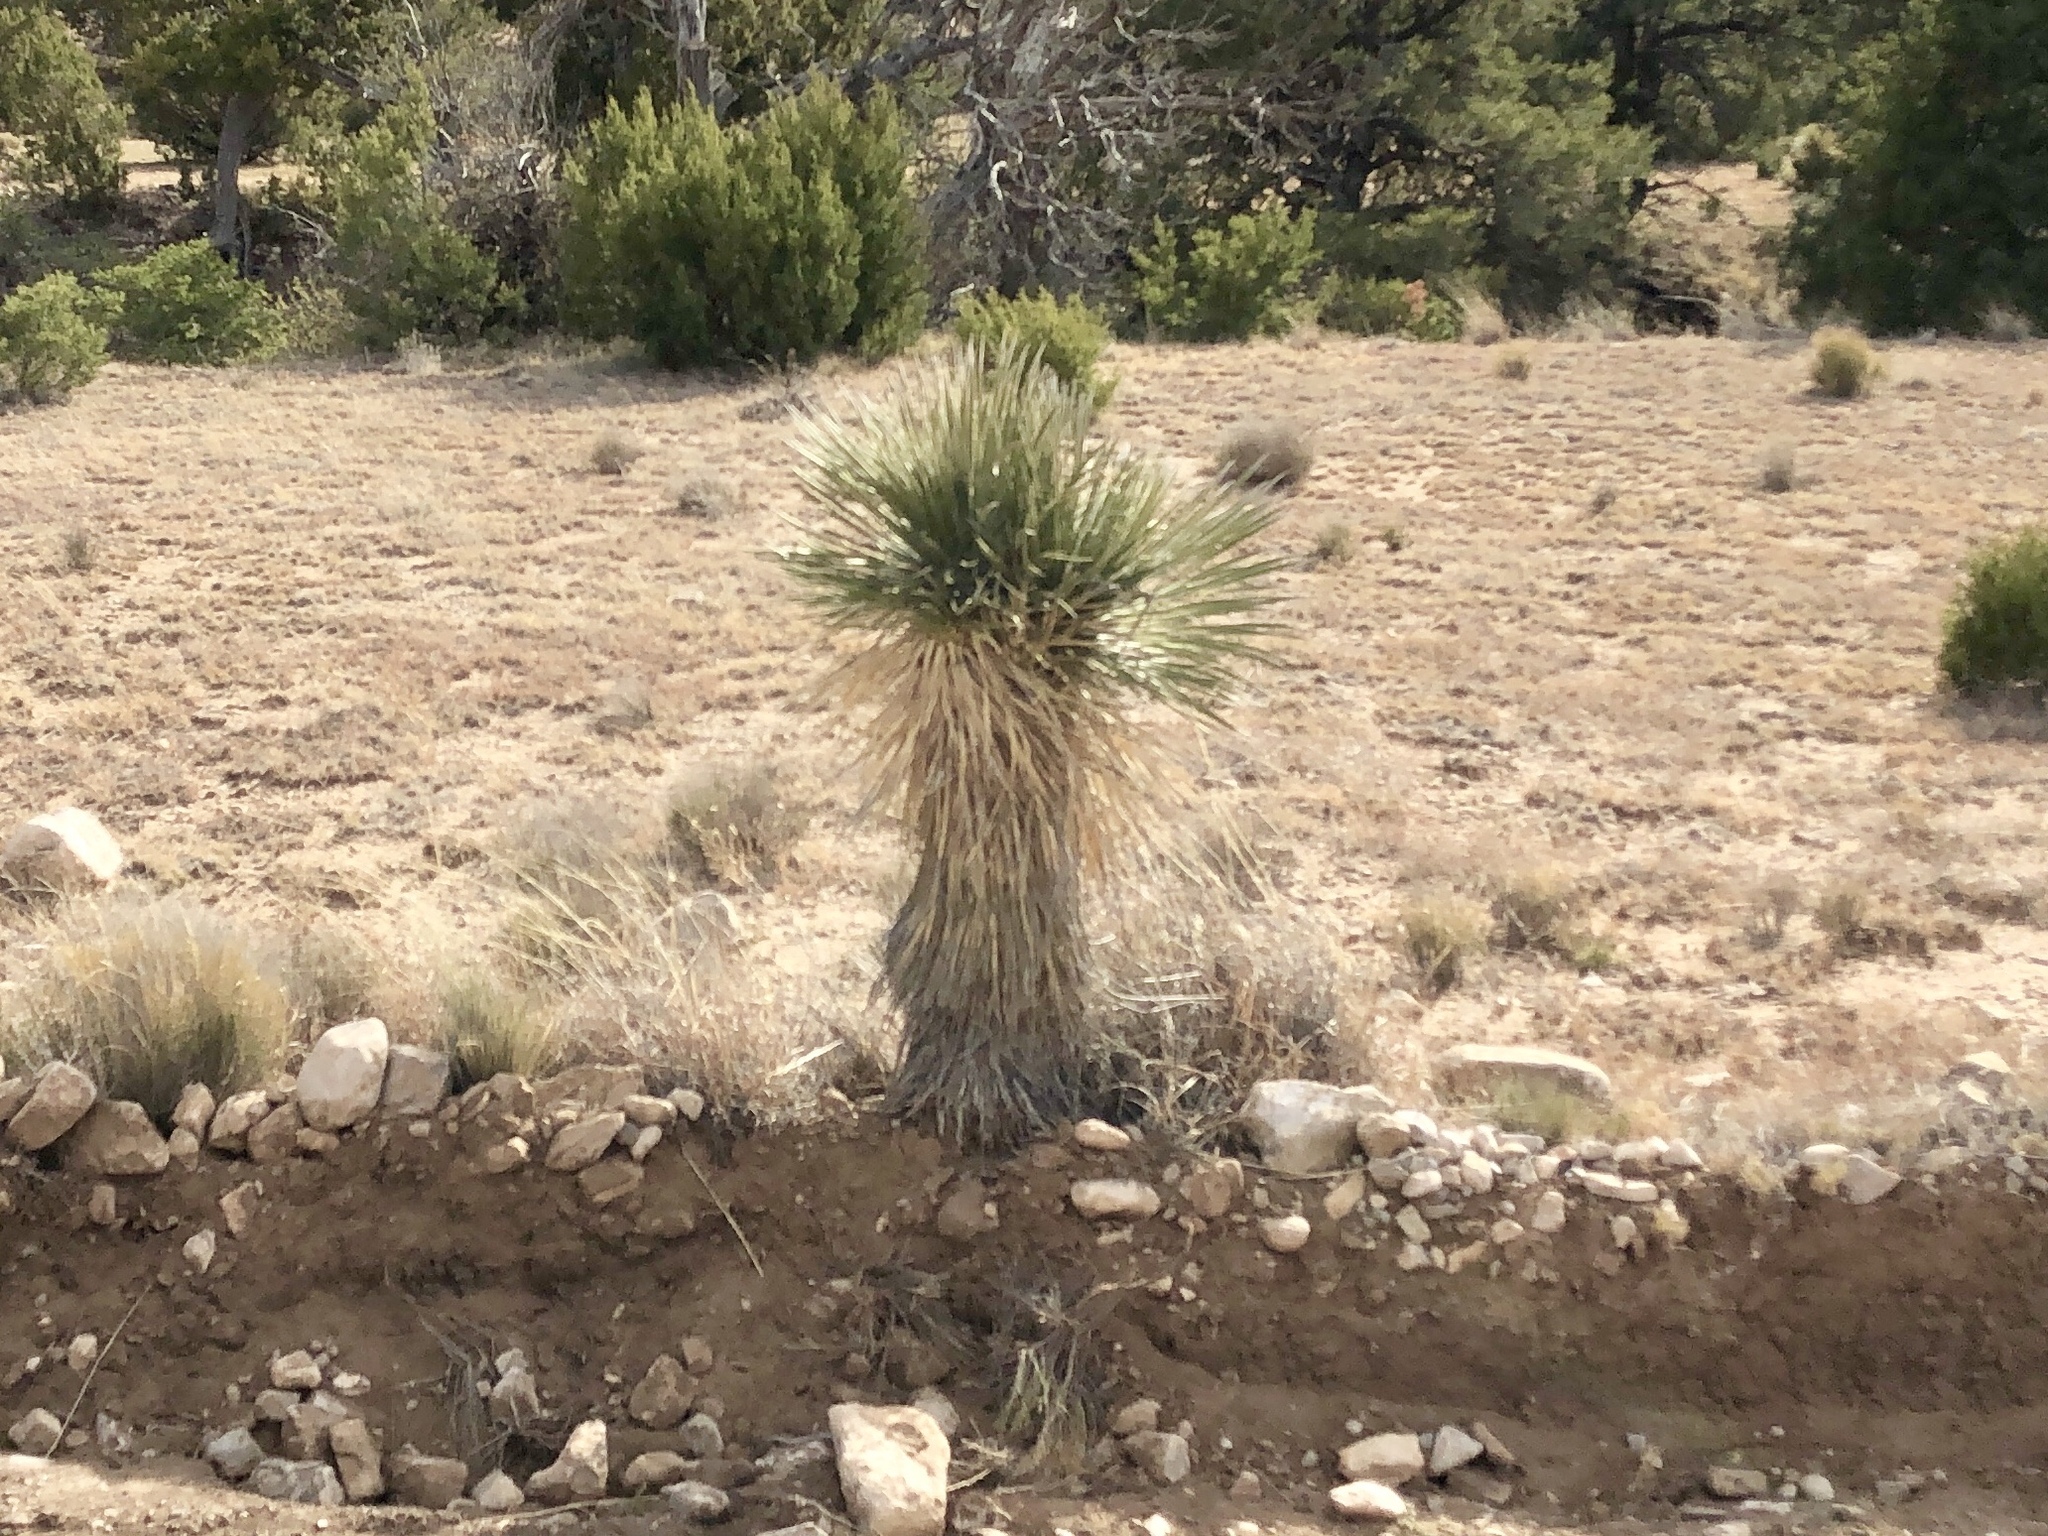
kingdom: Plantae
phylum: Tracheophyta
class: Liliopsida
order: Asparagales
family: Asparagaceae
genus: Yucca
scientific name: Yucca elata
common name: Palmella
